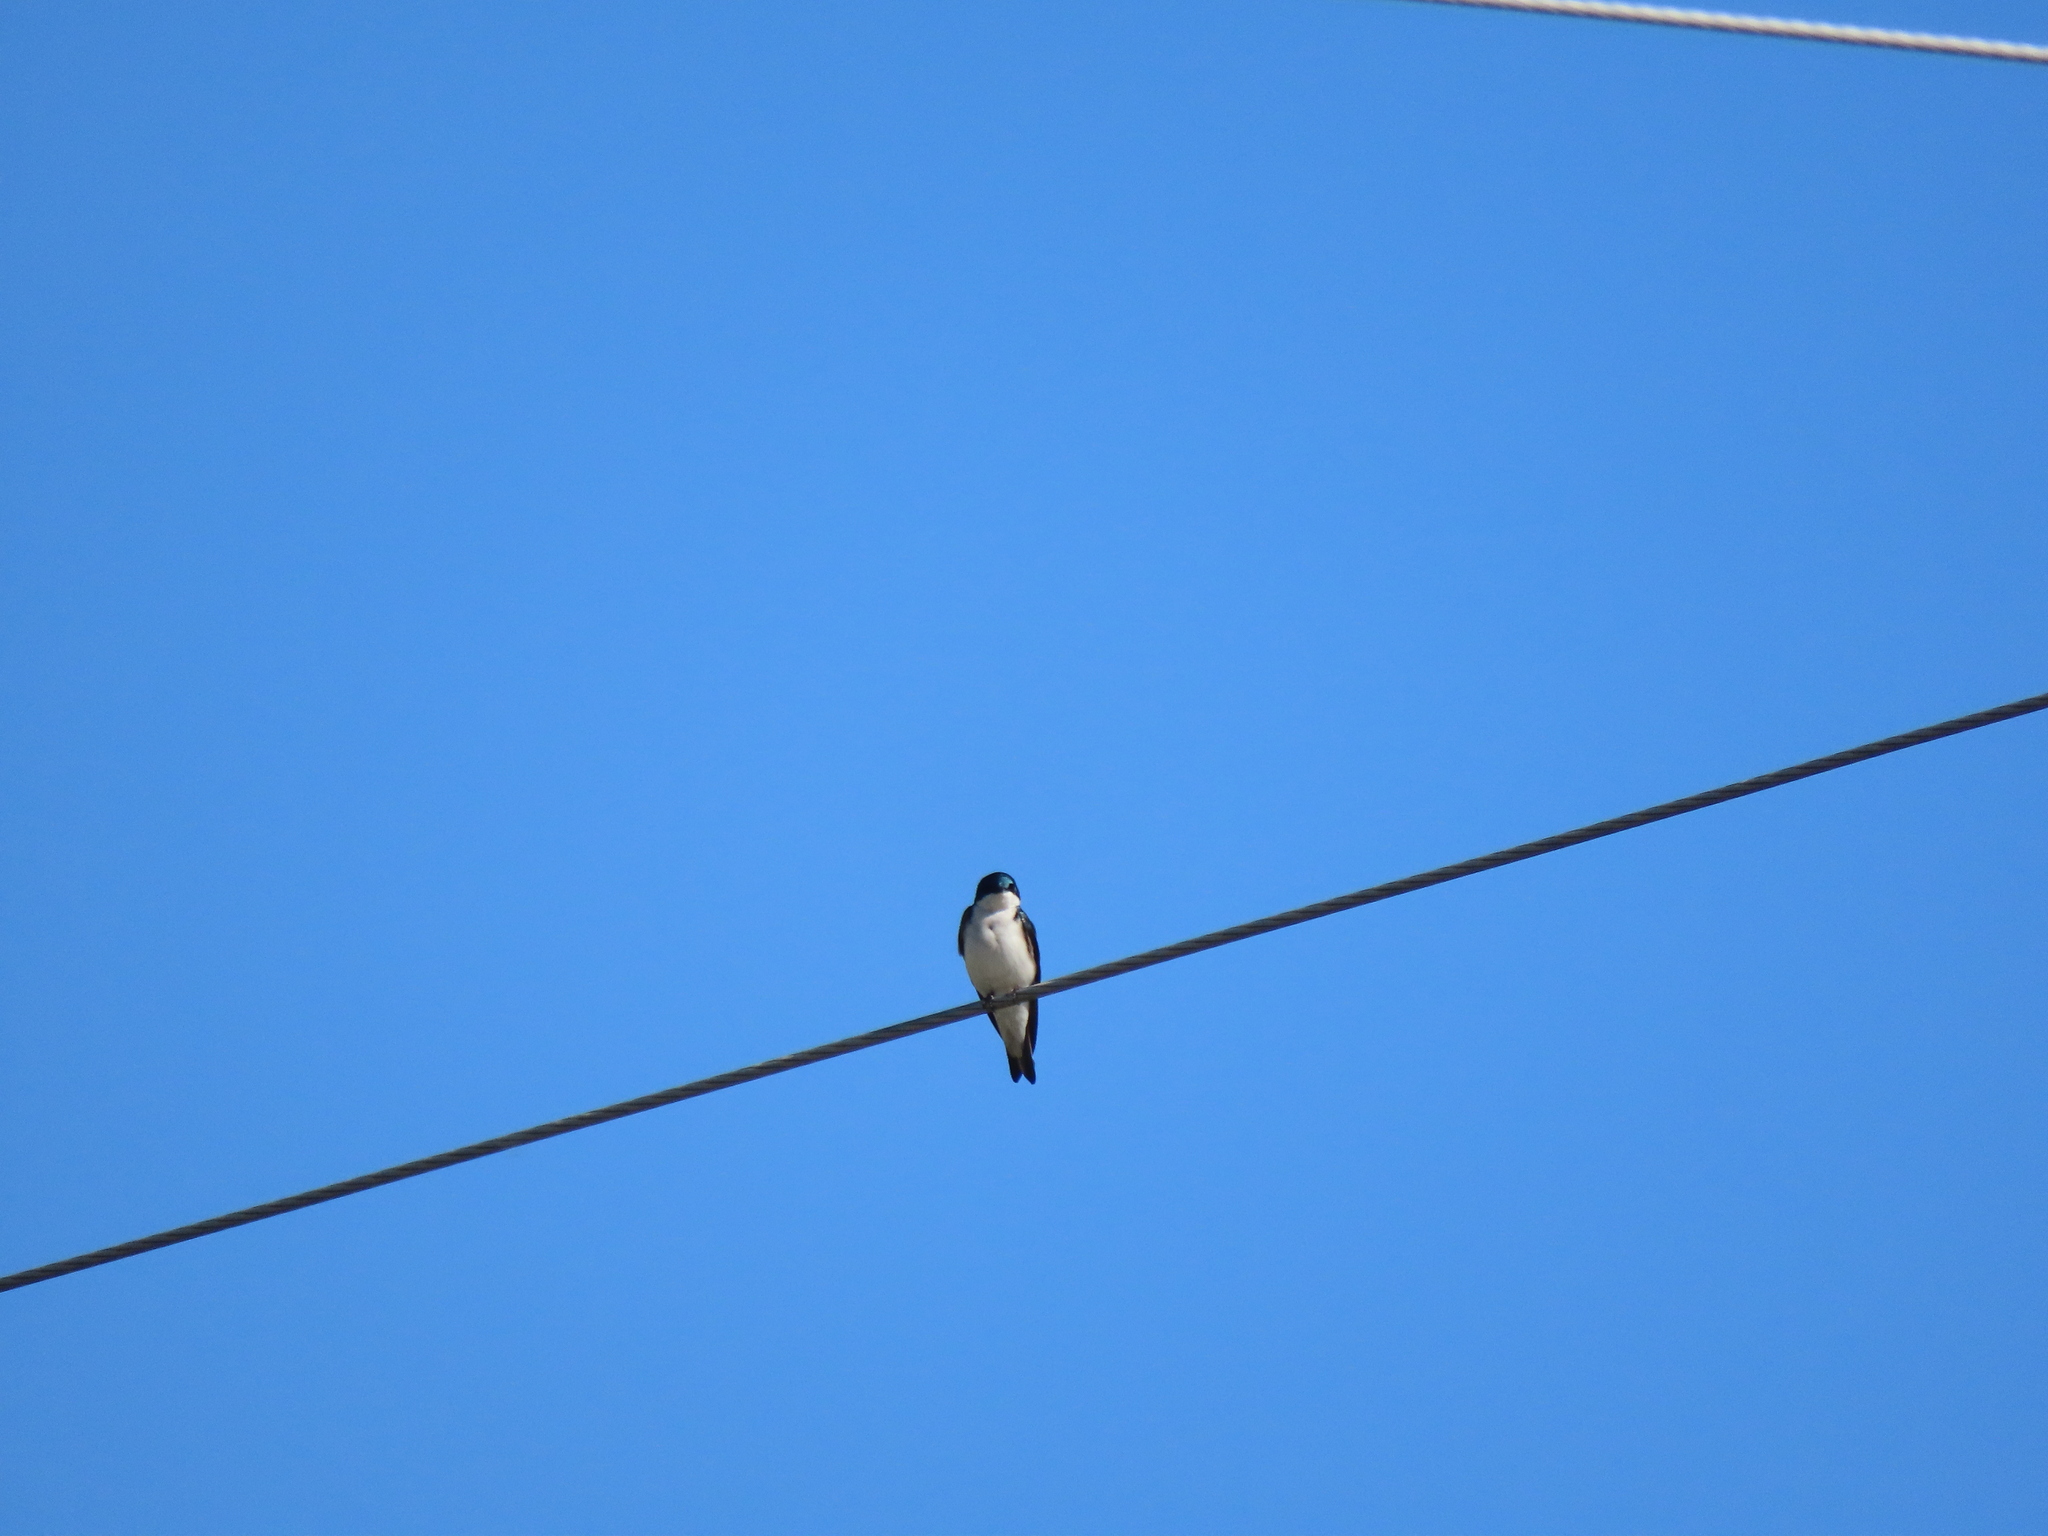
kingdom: Animalia
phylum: Chordata
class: Aves
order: Passeriformes
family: Hirundinidae
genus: Tachycineta
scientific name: Tachycineta bicolor
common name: Tree swallow
